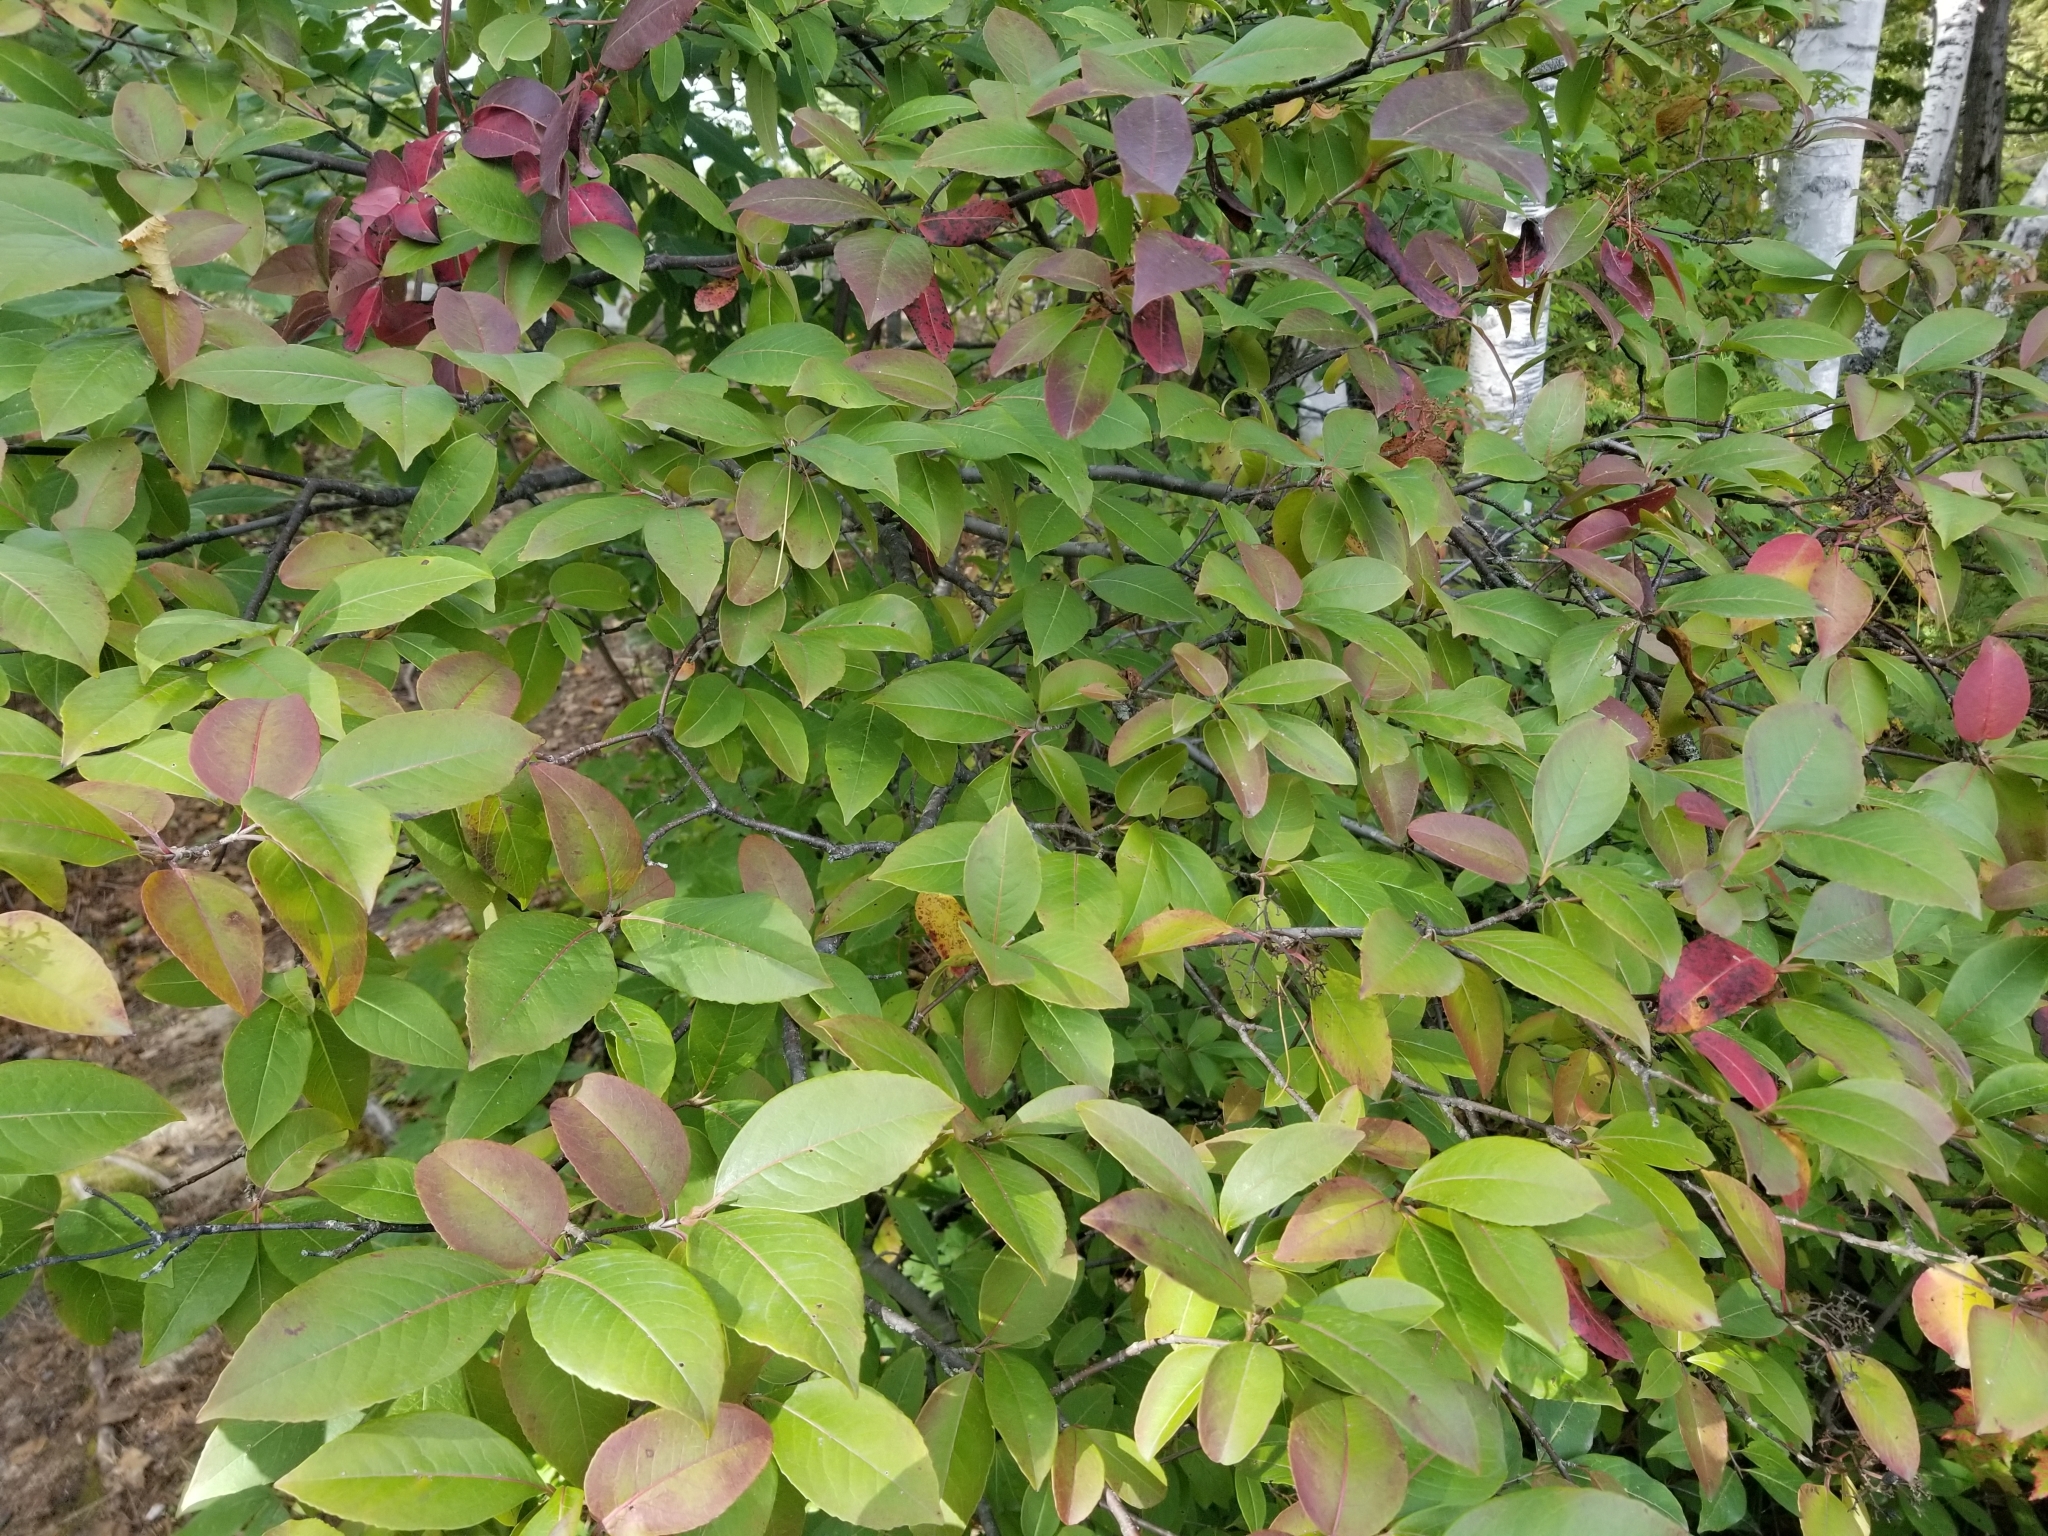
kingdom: Plantae
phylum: Tracheophyta
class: Magnoliopsida
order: Dipsacales
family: Viburnaceae
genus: Viburnum
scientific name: Viburnum cassinoides
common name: Swamp haw
